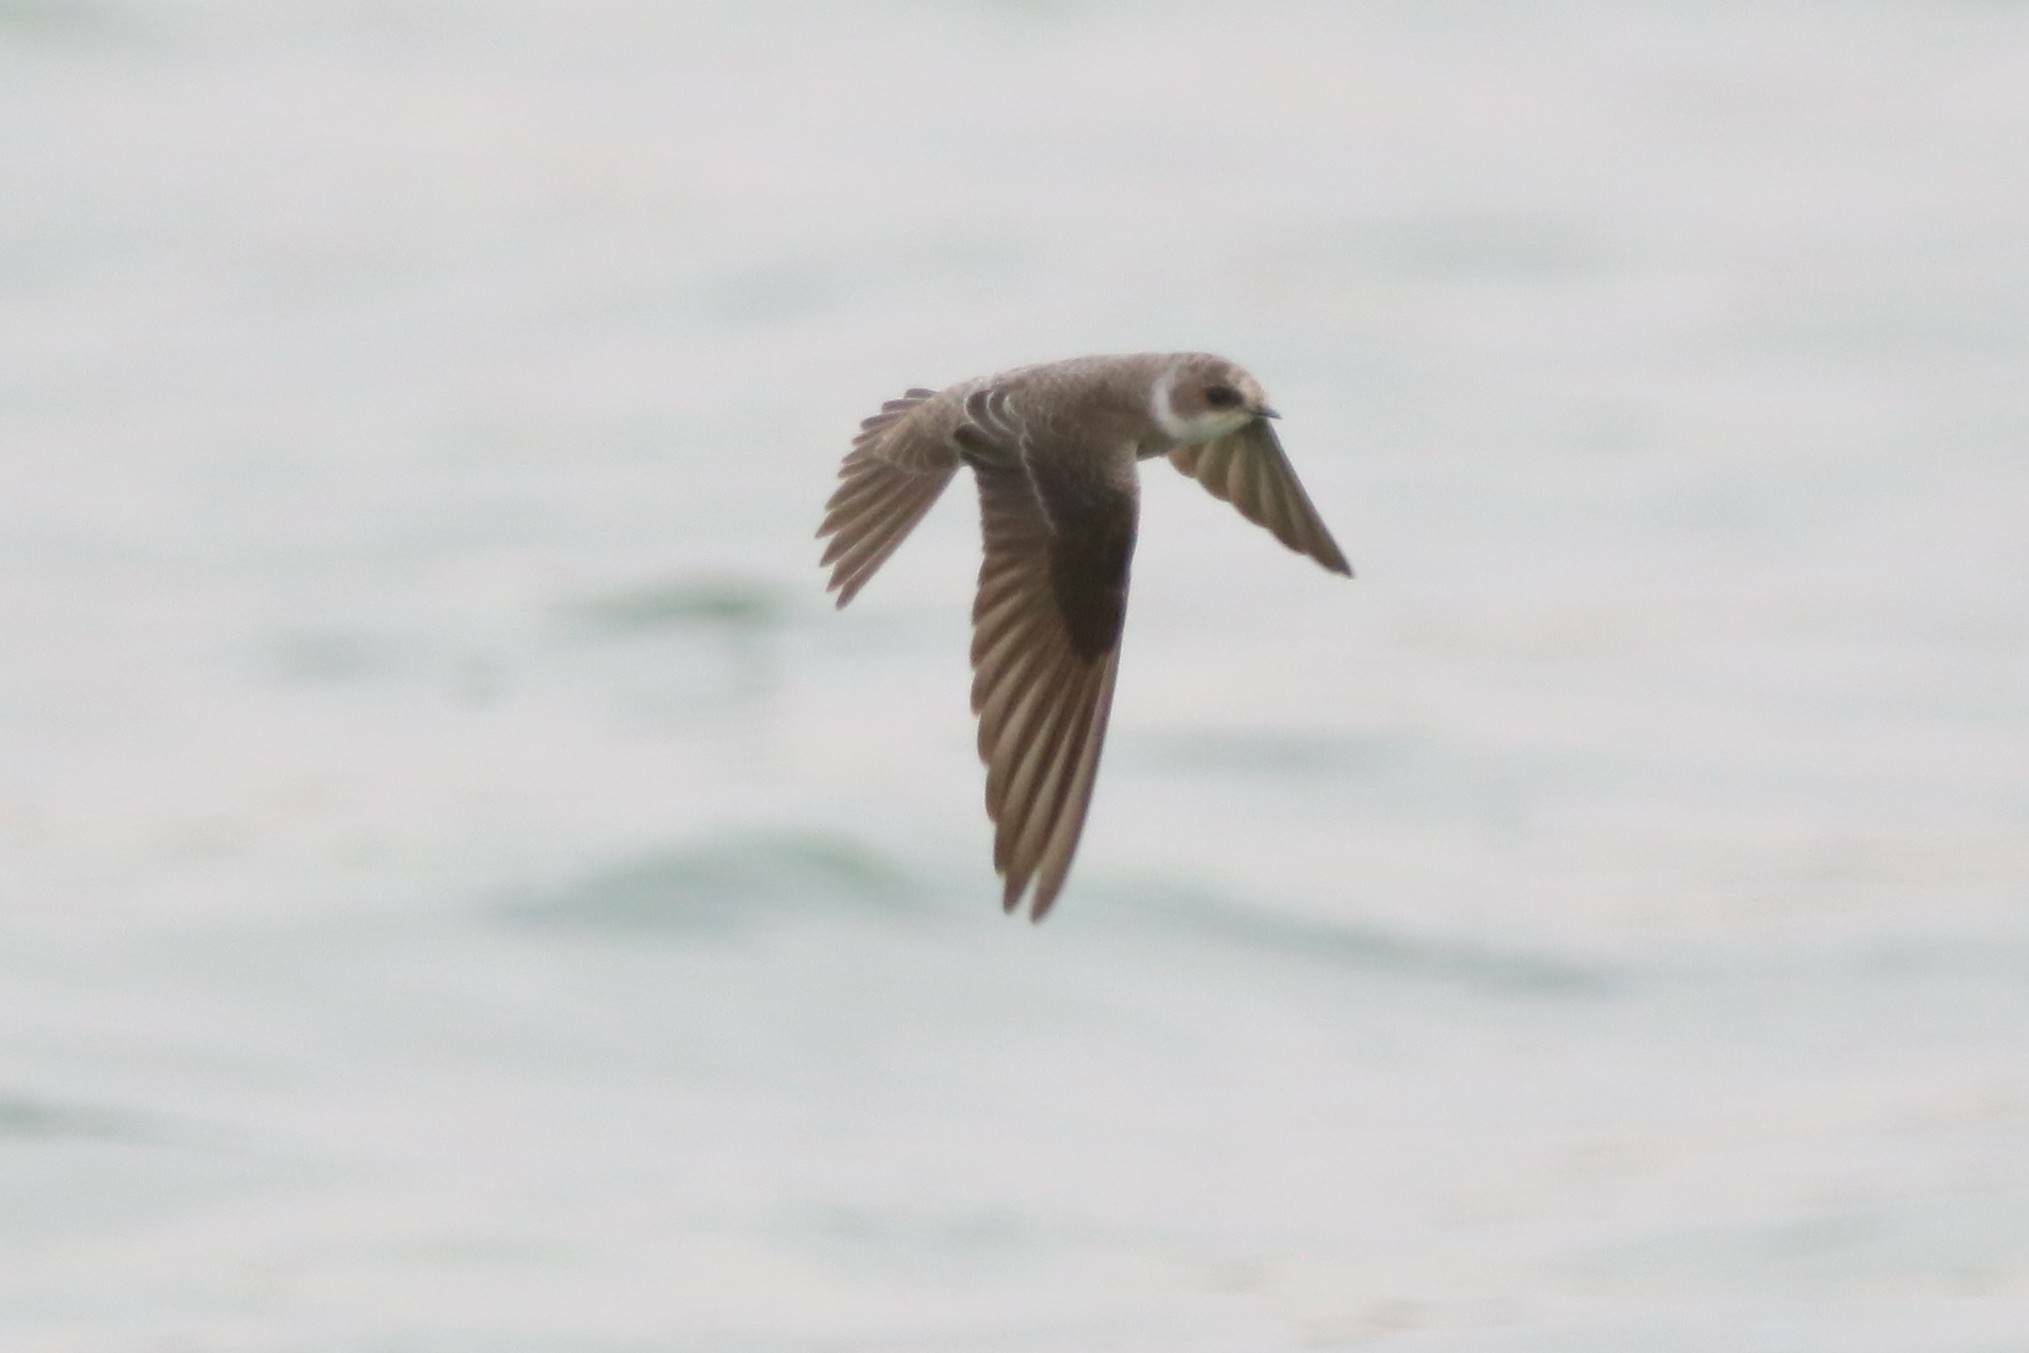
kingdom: Animalia
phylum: Chordata
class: Aves
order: Passeriformes
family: Hirundinidae
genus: Riparia
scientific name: Riparia riparia
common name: Sand martin
